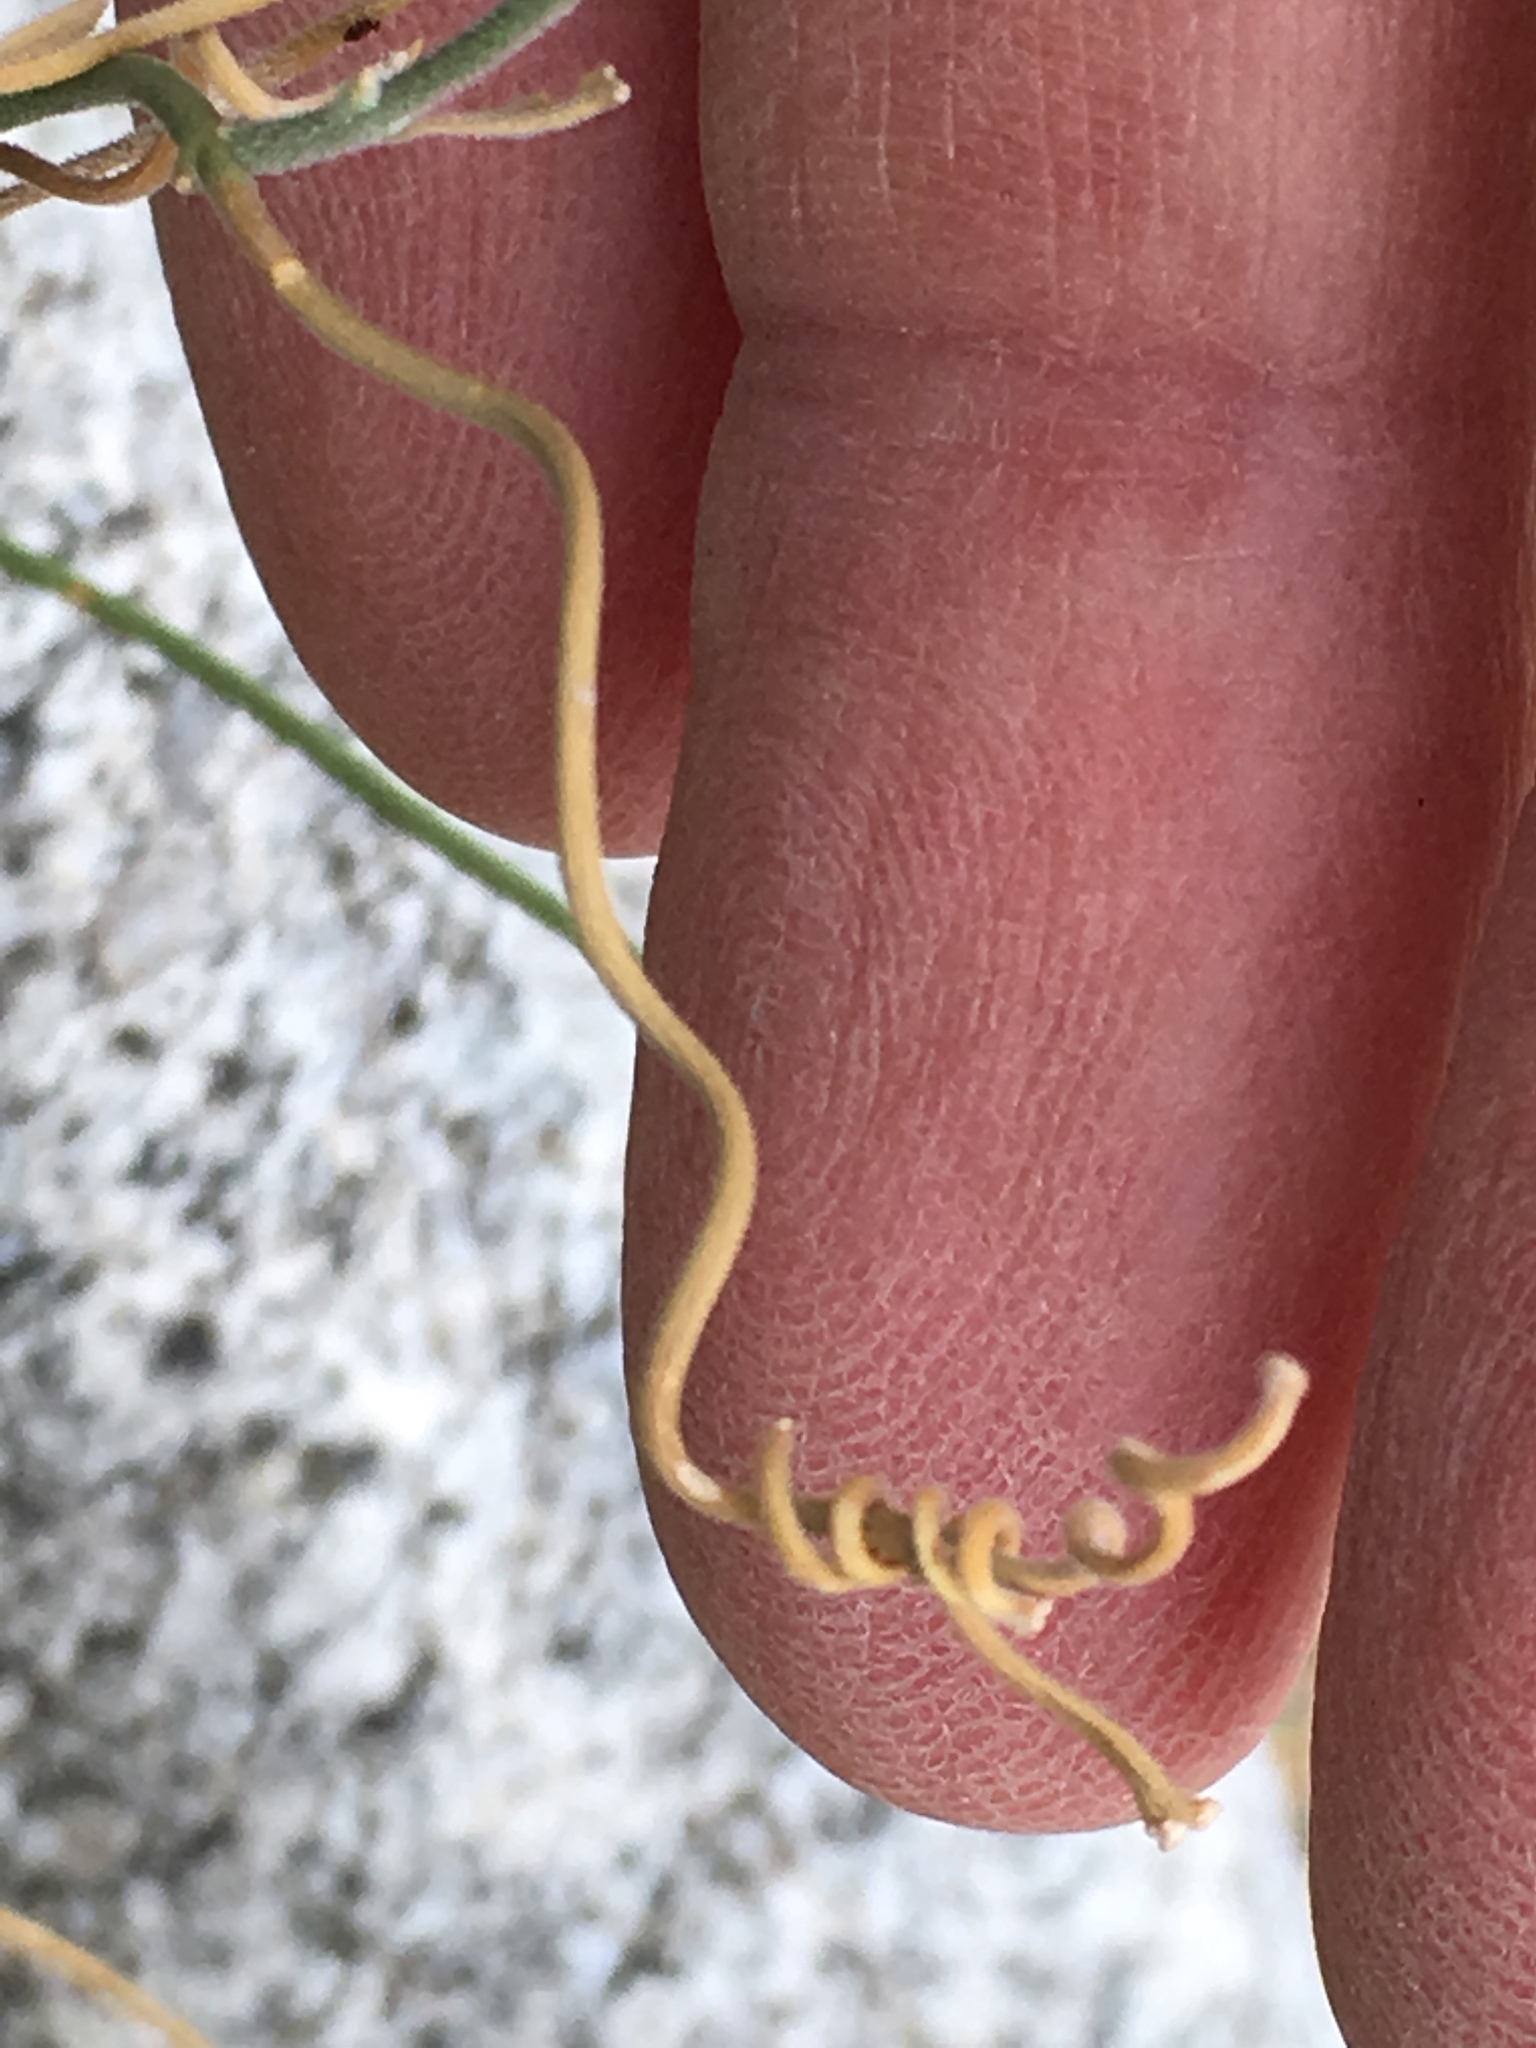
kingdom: Plantae
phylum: Tracheophyta
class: Magnoliopsida
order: Gentianales
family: Apocynaceae
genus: Funastrum
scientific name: Funastrum hirtellum
